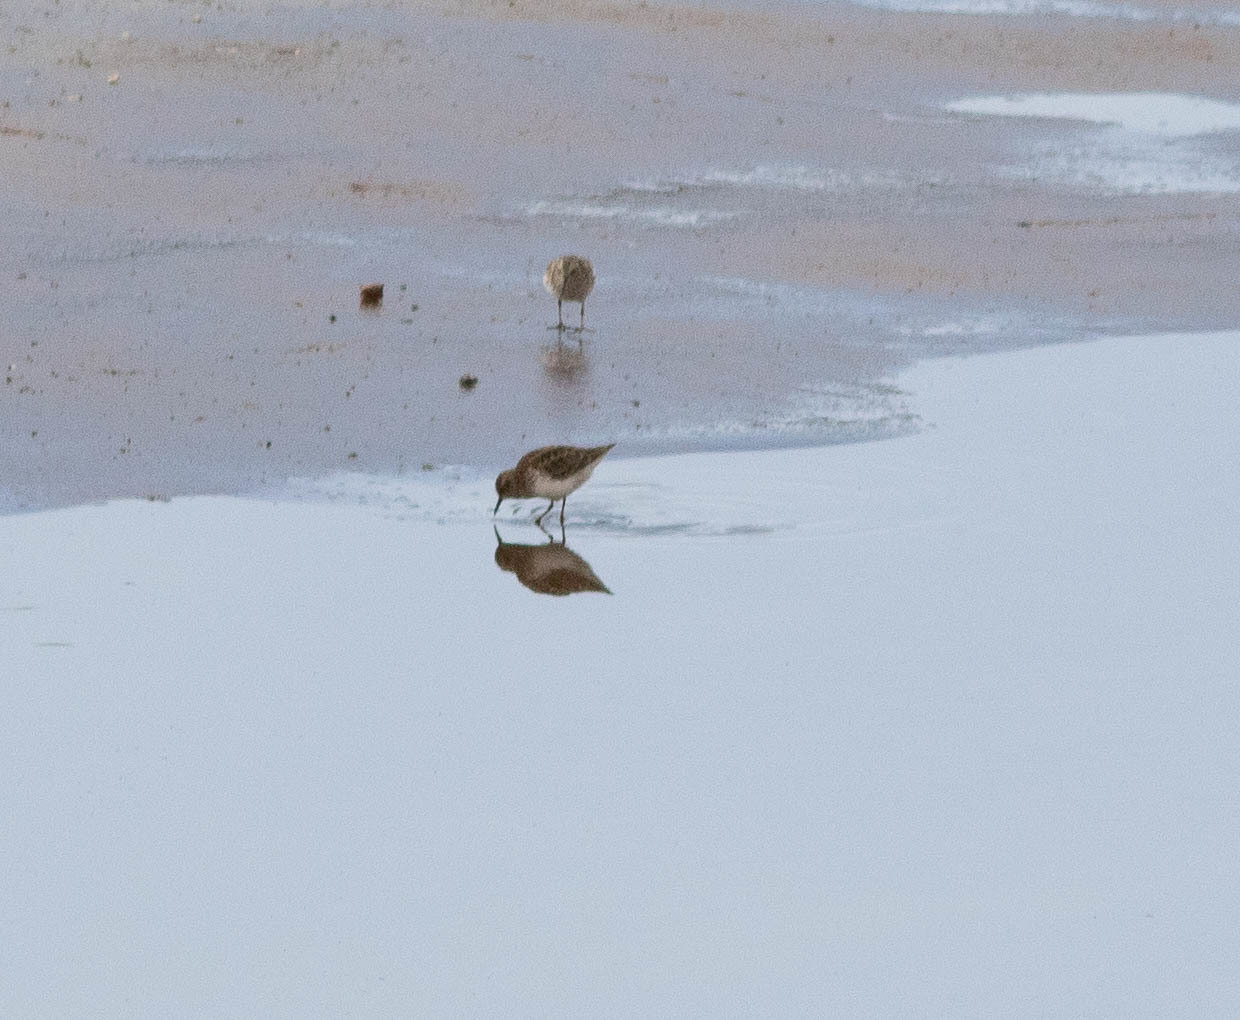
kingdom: Animalia
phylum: Chordata
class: Aves
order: Charadriiformes
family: Scolopacidae
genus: Calidris
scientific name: Calidris minutilla
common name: Least sandpiper
